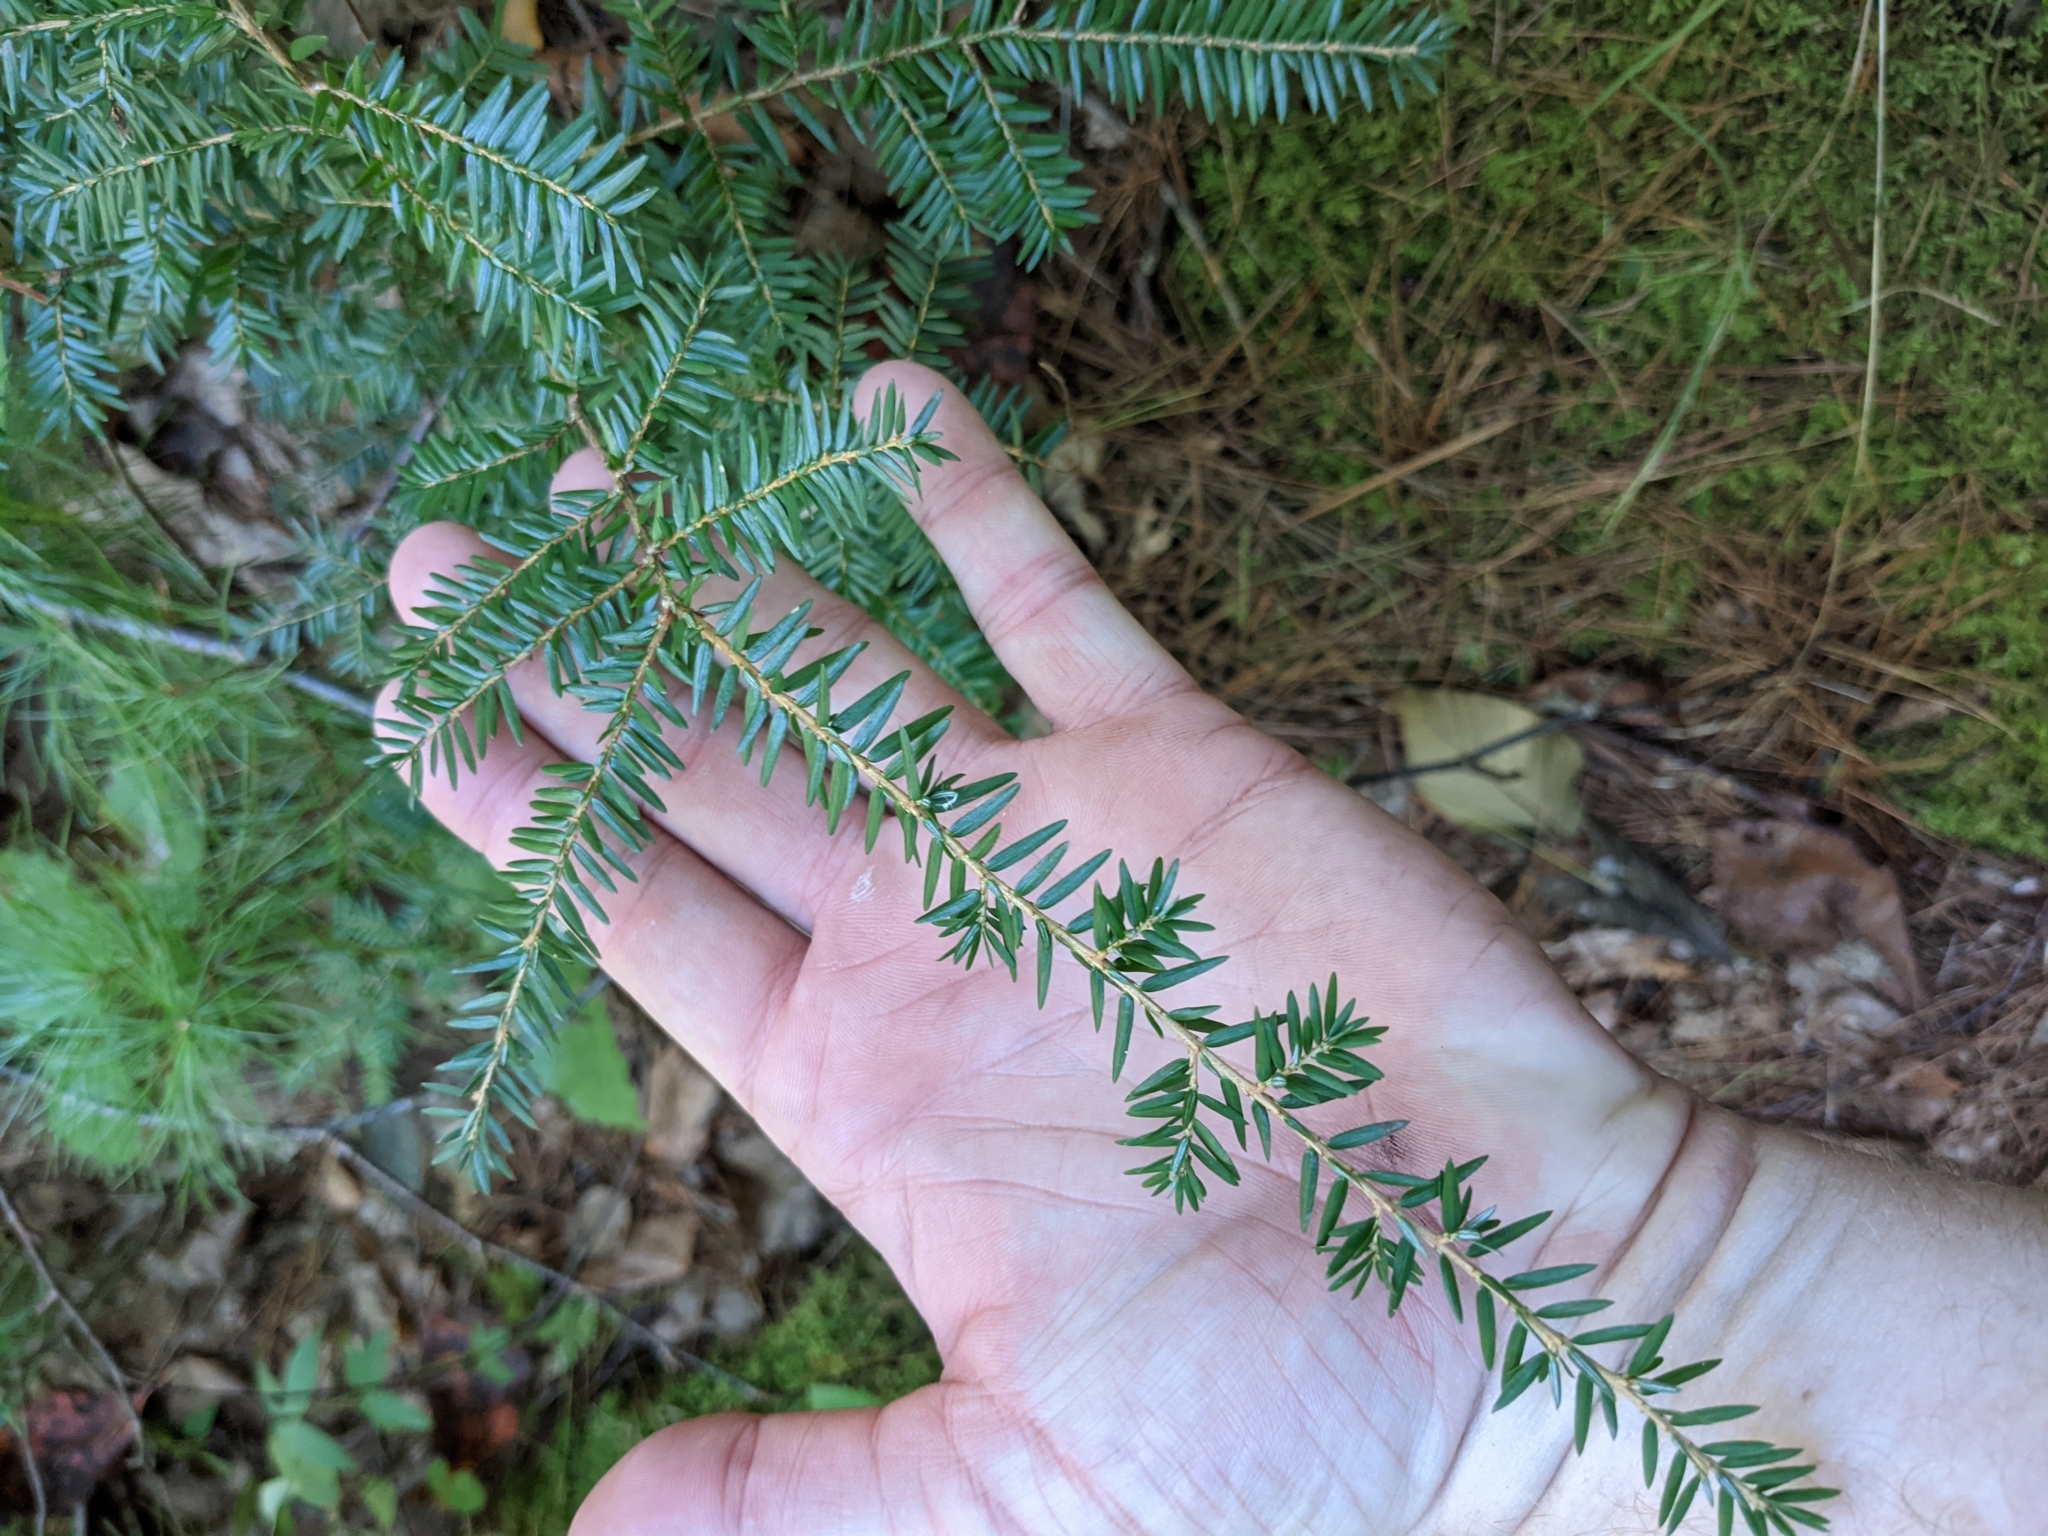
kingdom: Plantae
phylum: Tracheophyta
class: Pinopsida
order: Pinales
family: Pinaceae
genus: Tsuga
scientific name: Tsuga canadensis
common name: Eastern hemlock
